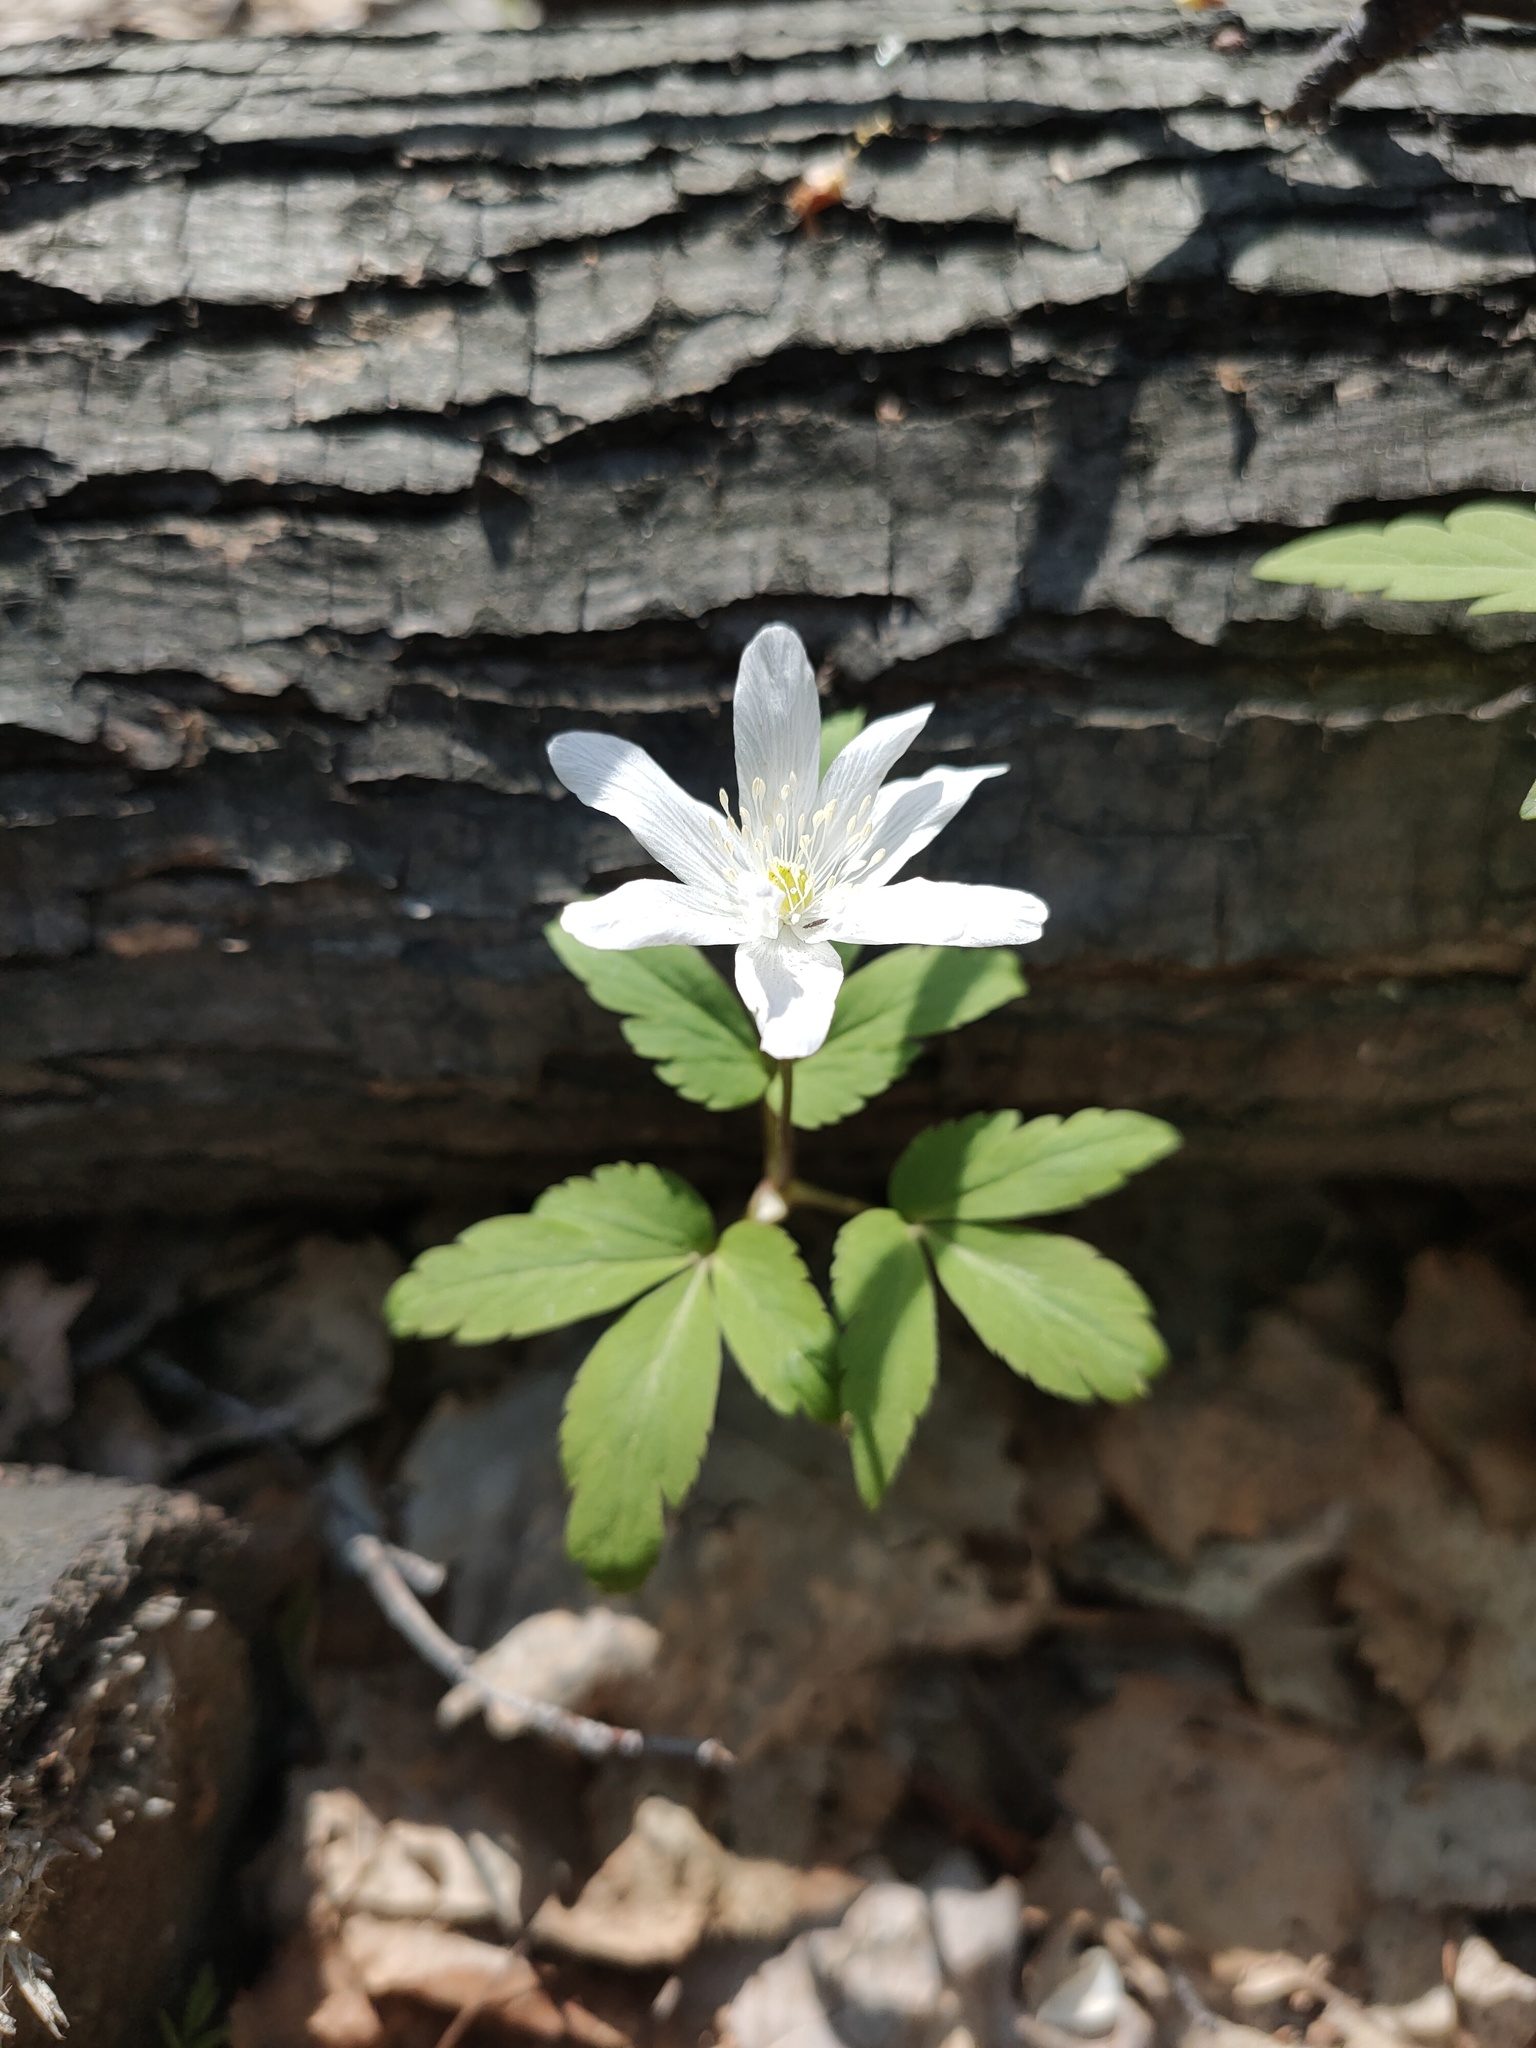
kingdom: Plantae
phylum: Tracheophyta
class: Magnoliopsida
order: Ranunculales
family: Ranunculaceae
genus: Anemone
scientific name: Anemone altaica
